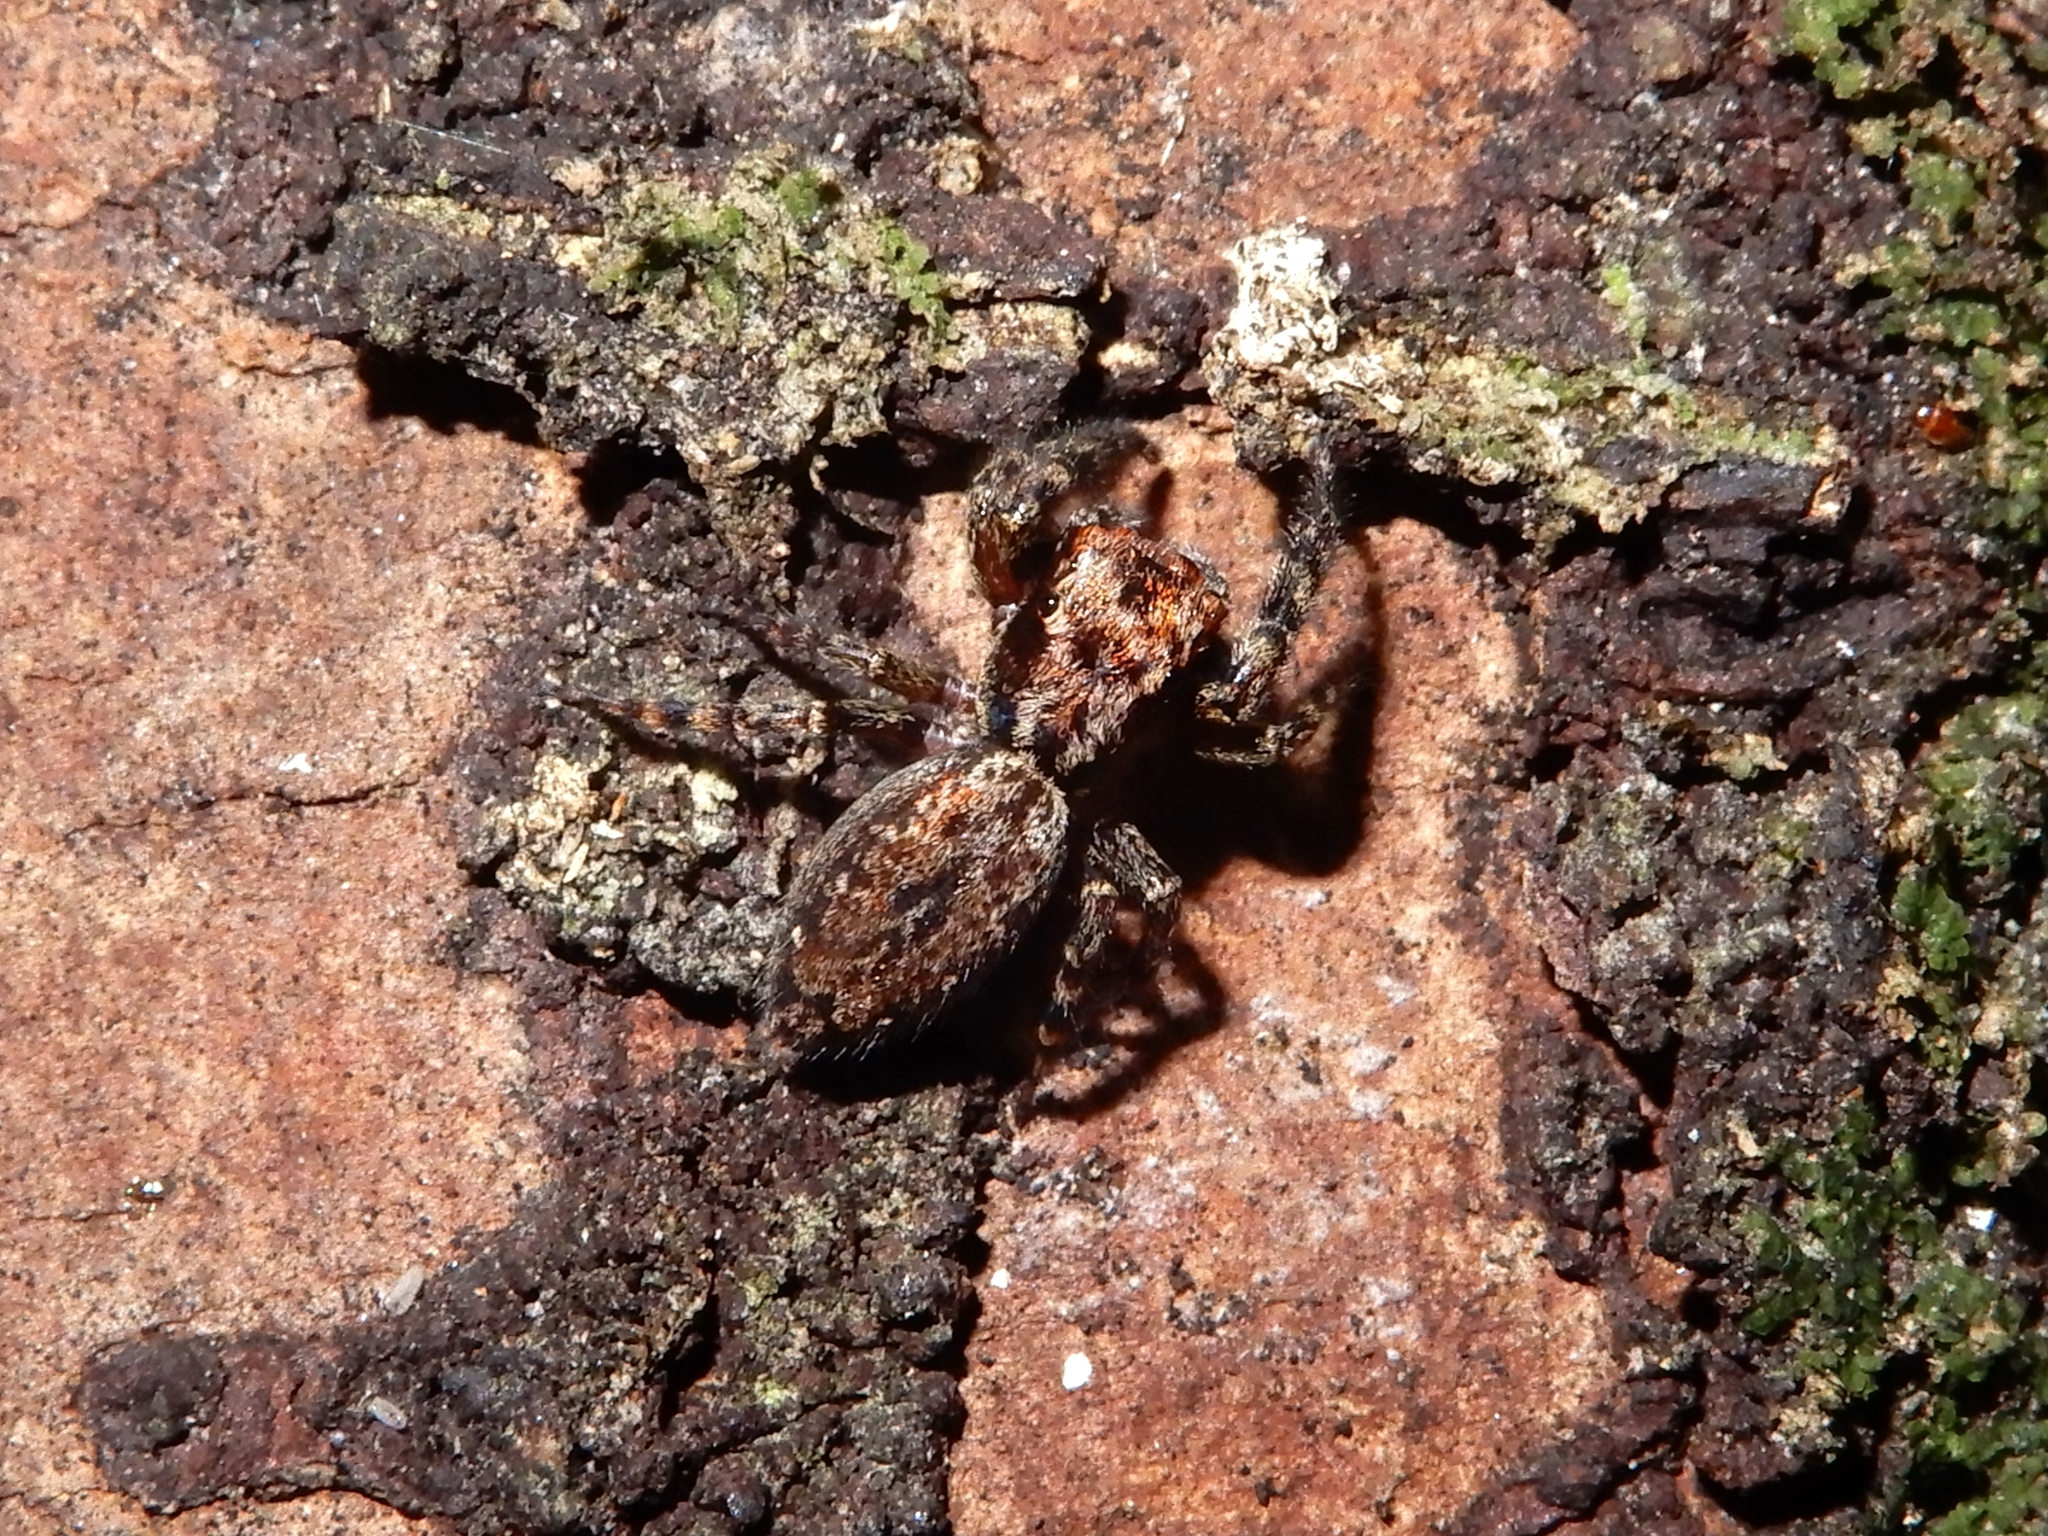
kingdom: Animalia
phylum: Arthropoda
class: Arachnida
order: Araneae
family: Salticidae
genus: Trite
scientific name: Trite auricoma
